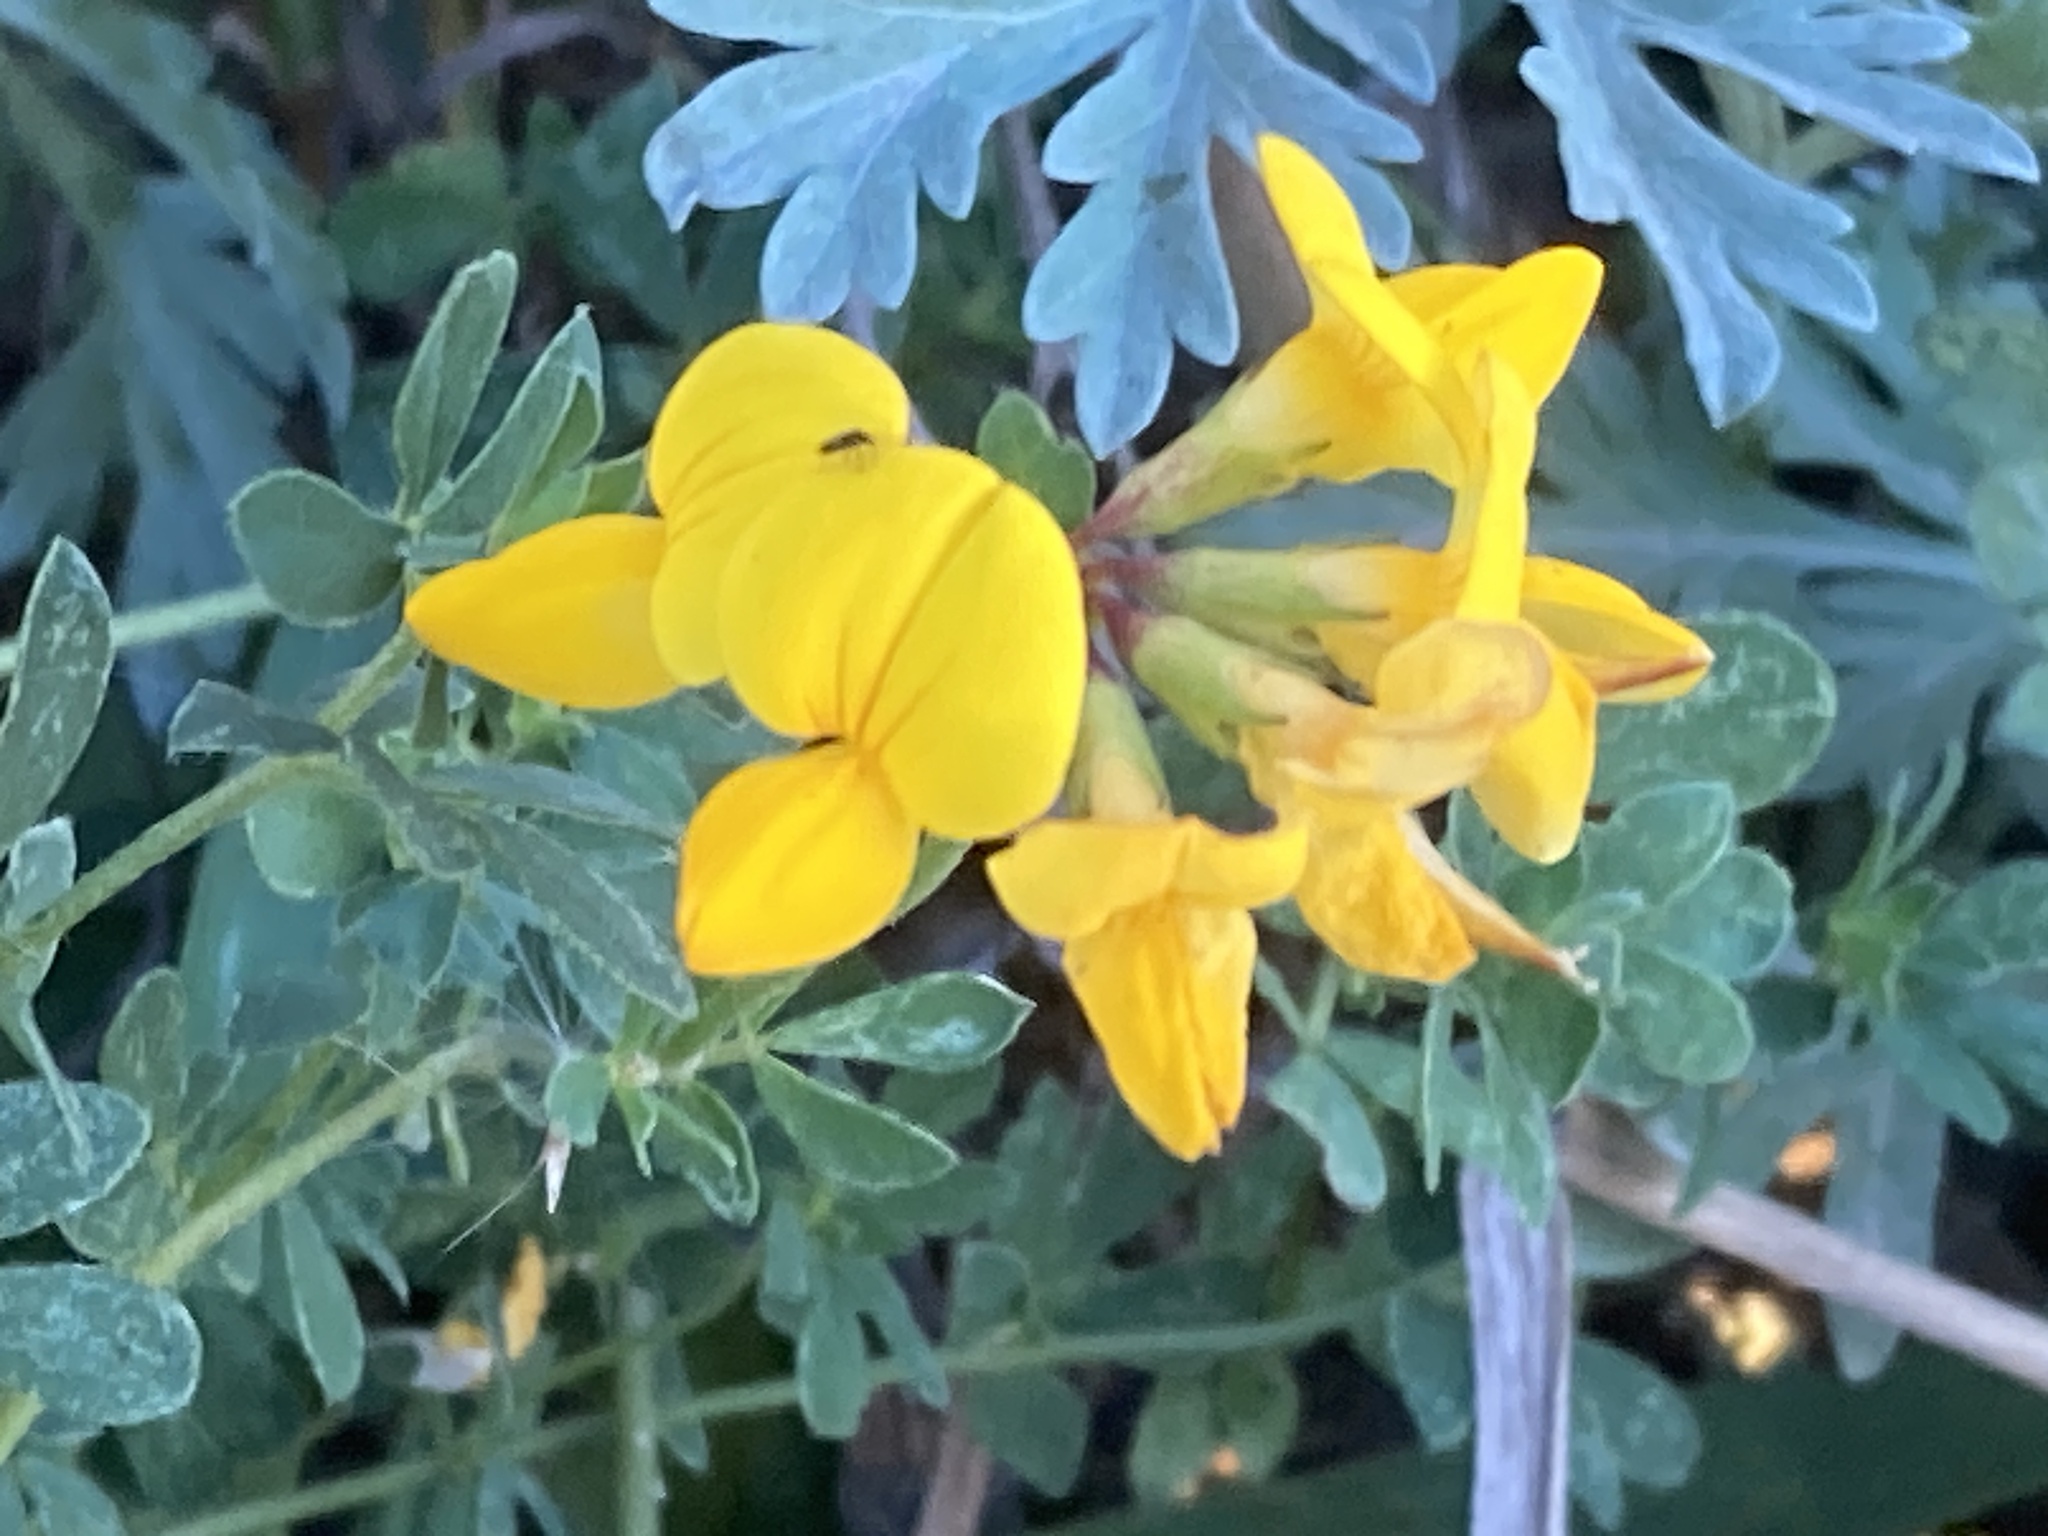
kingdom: Plantae
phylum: Tracheophyta
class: Magnoliopsida
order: Fabales
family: Fabaceae
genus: Lotus
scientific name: Lotus corniculatus
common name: Common bird's-foot-trefoil
